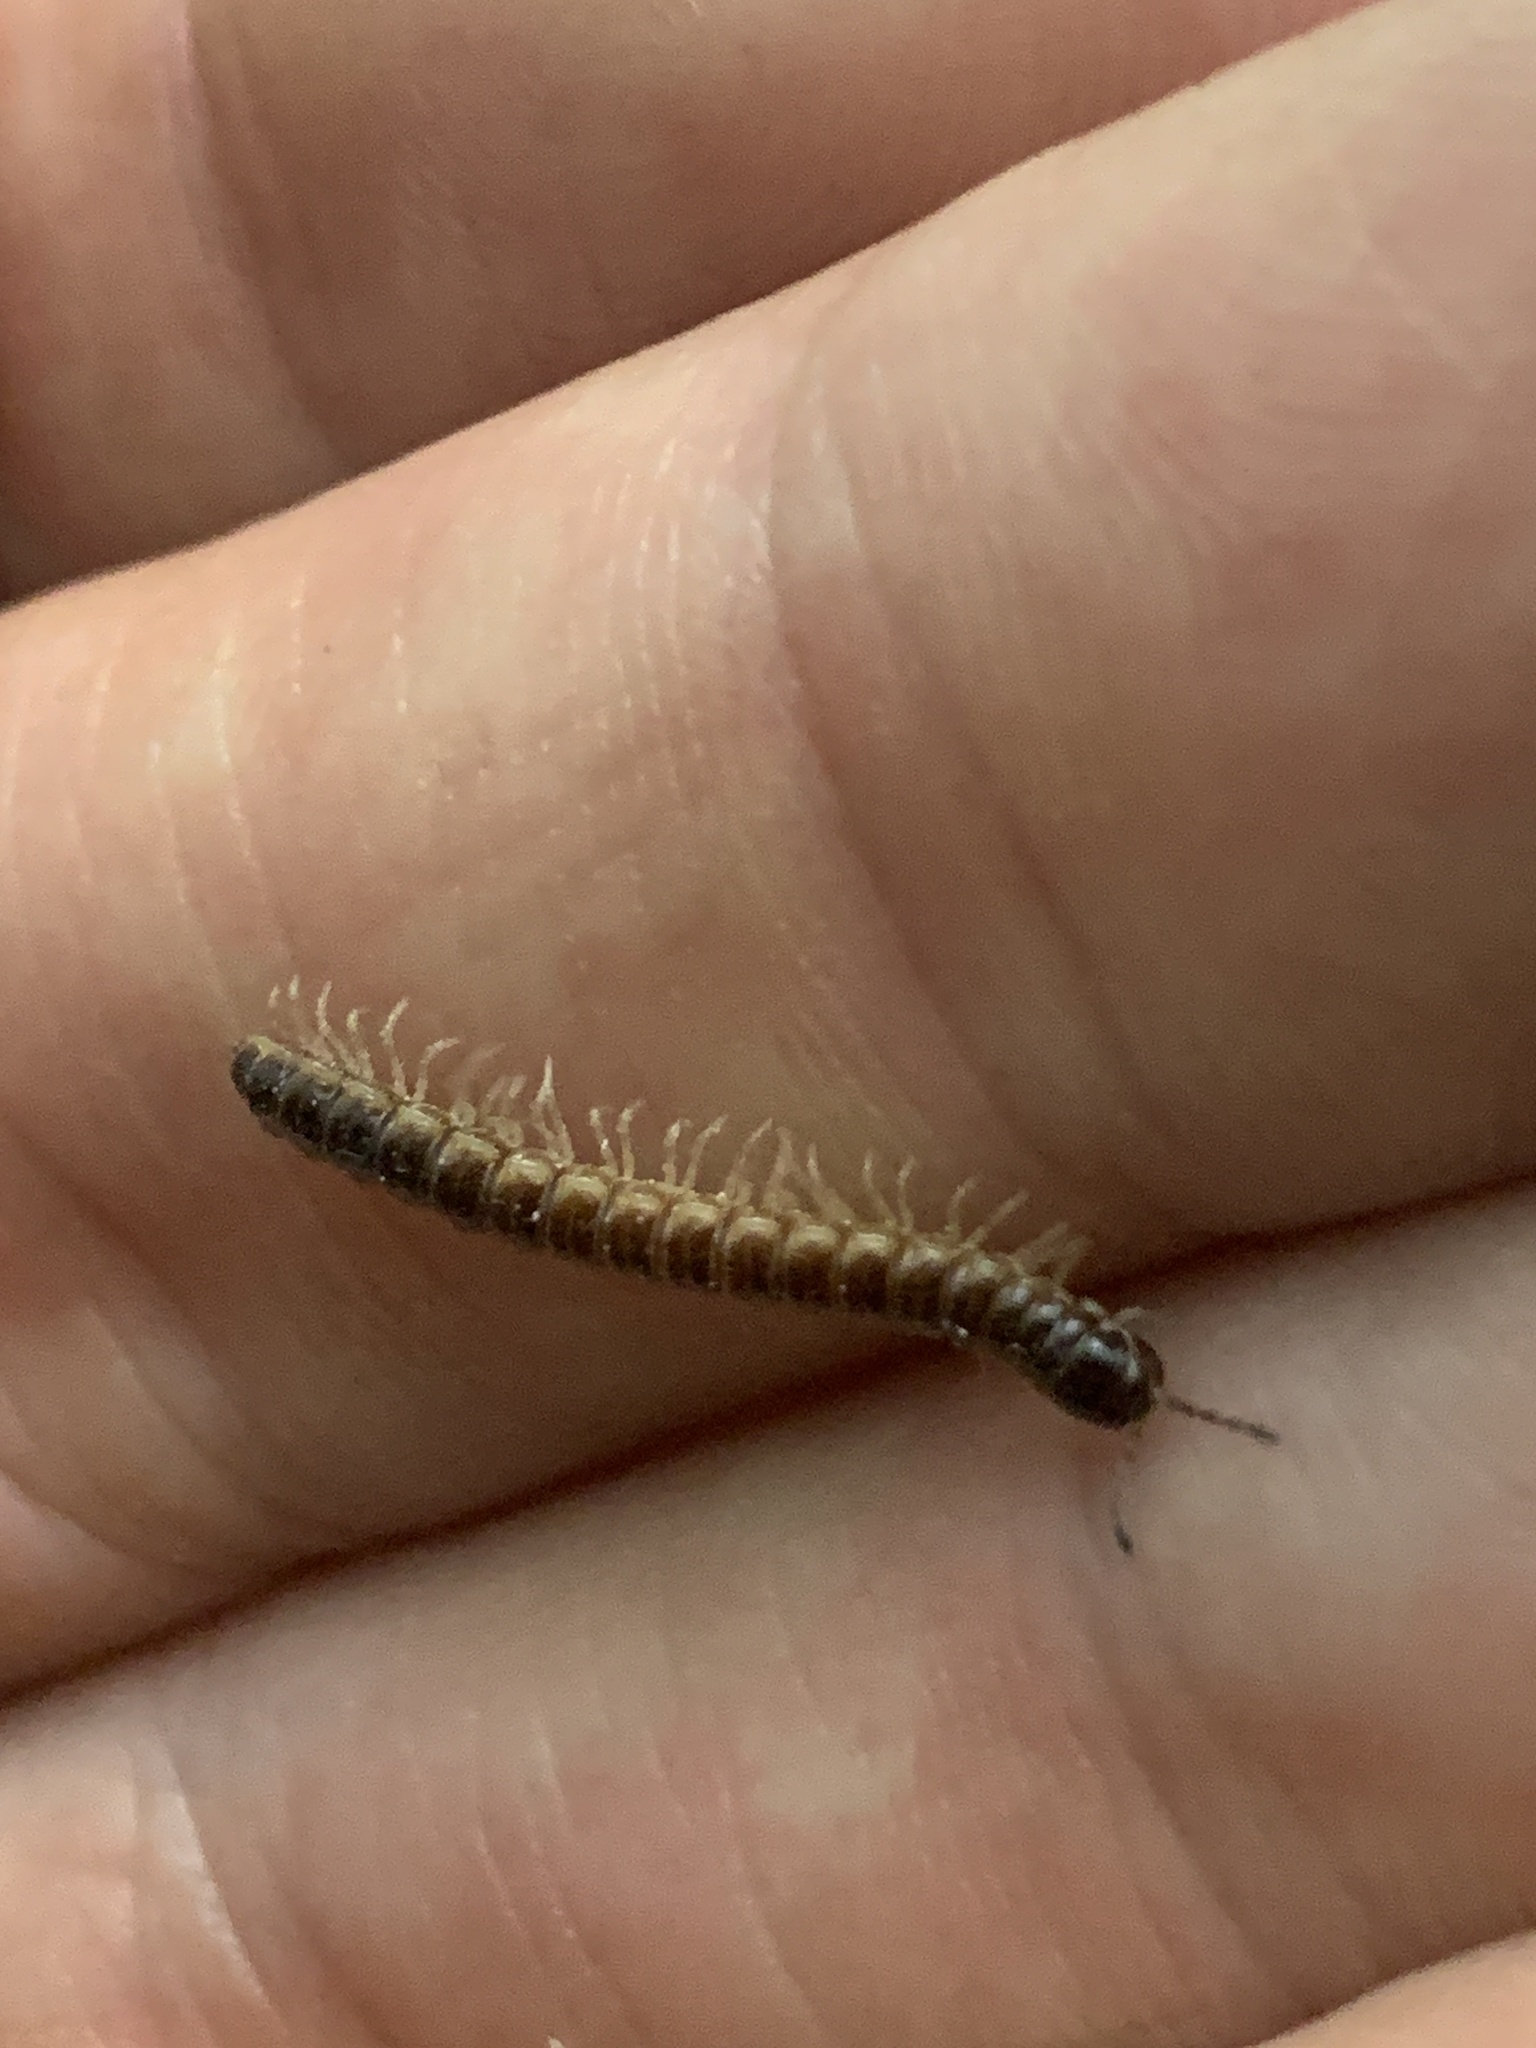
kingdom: Animalia
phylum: Arthropoda
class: Diplopoda
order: Polydesmida
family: Paradoxosomatidae
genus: Oxidus
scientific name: Oxidus gracilis
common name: Greenhouse millipede
